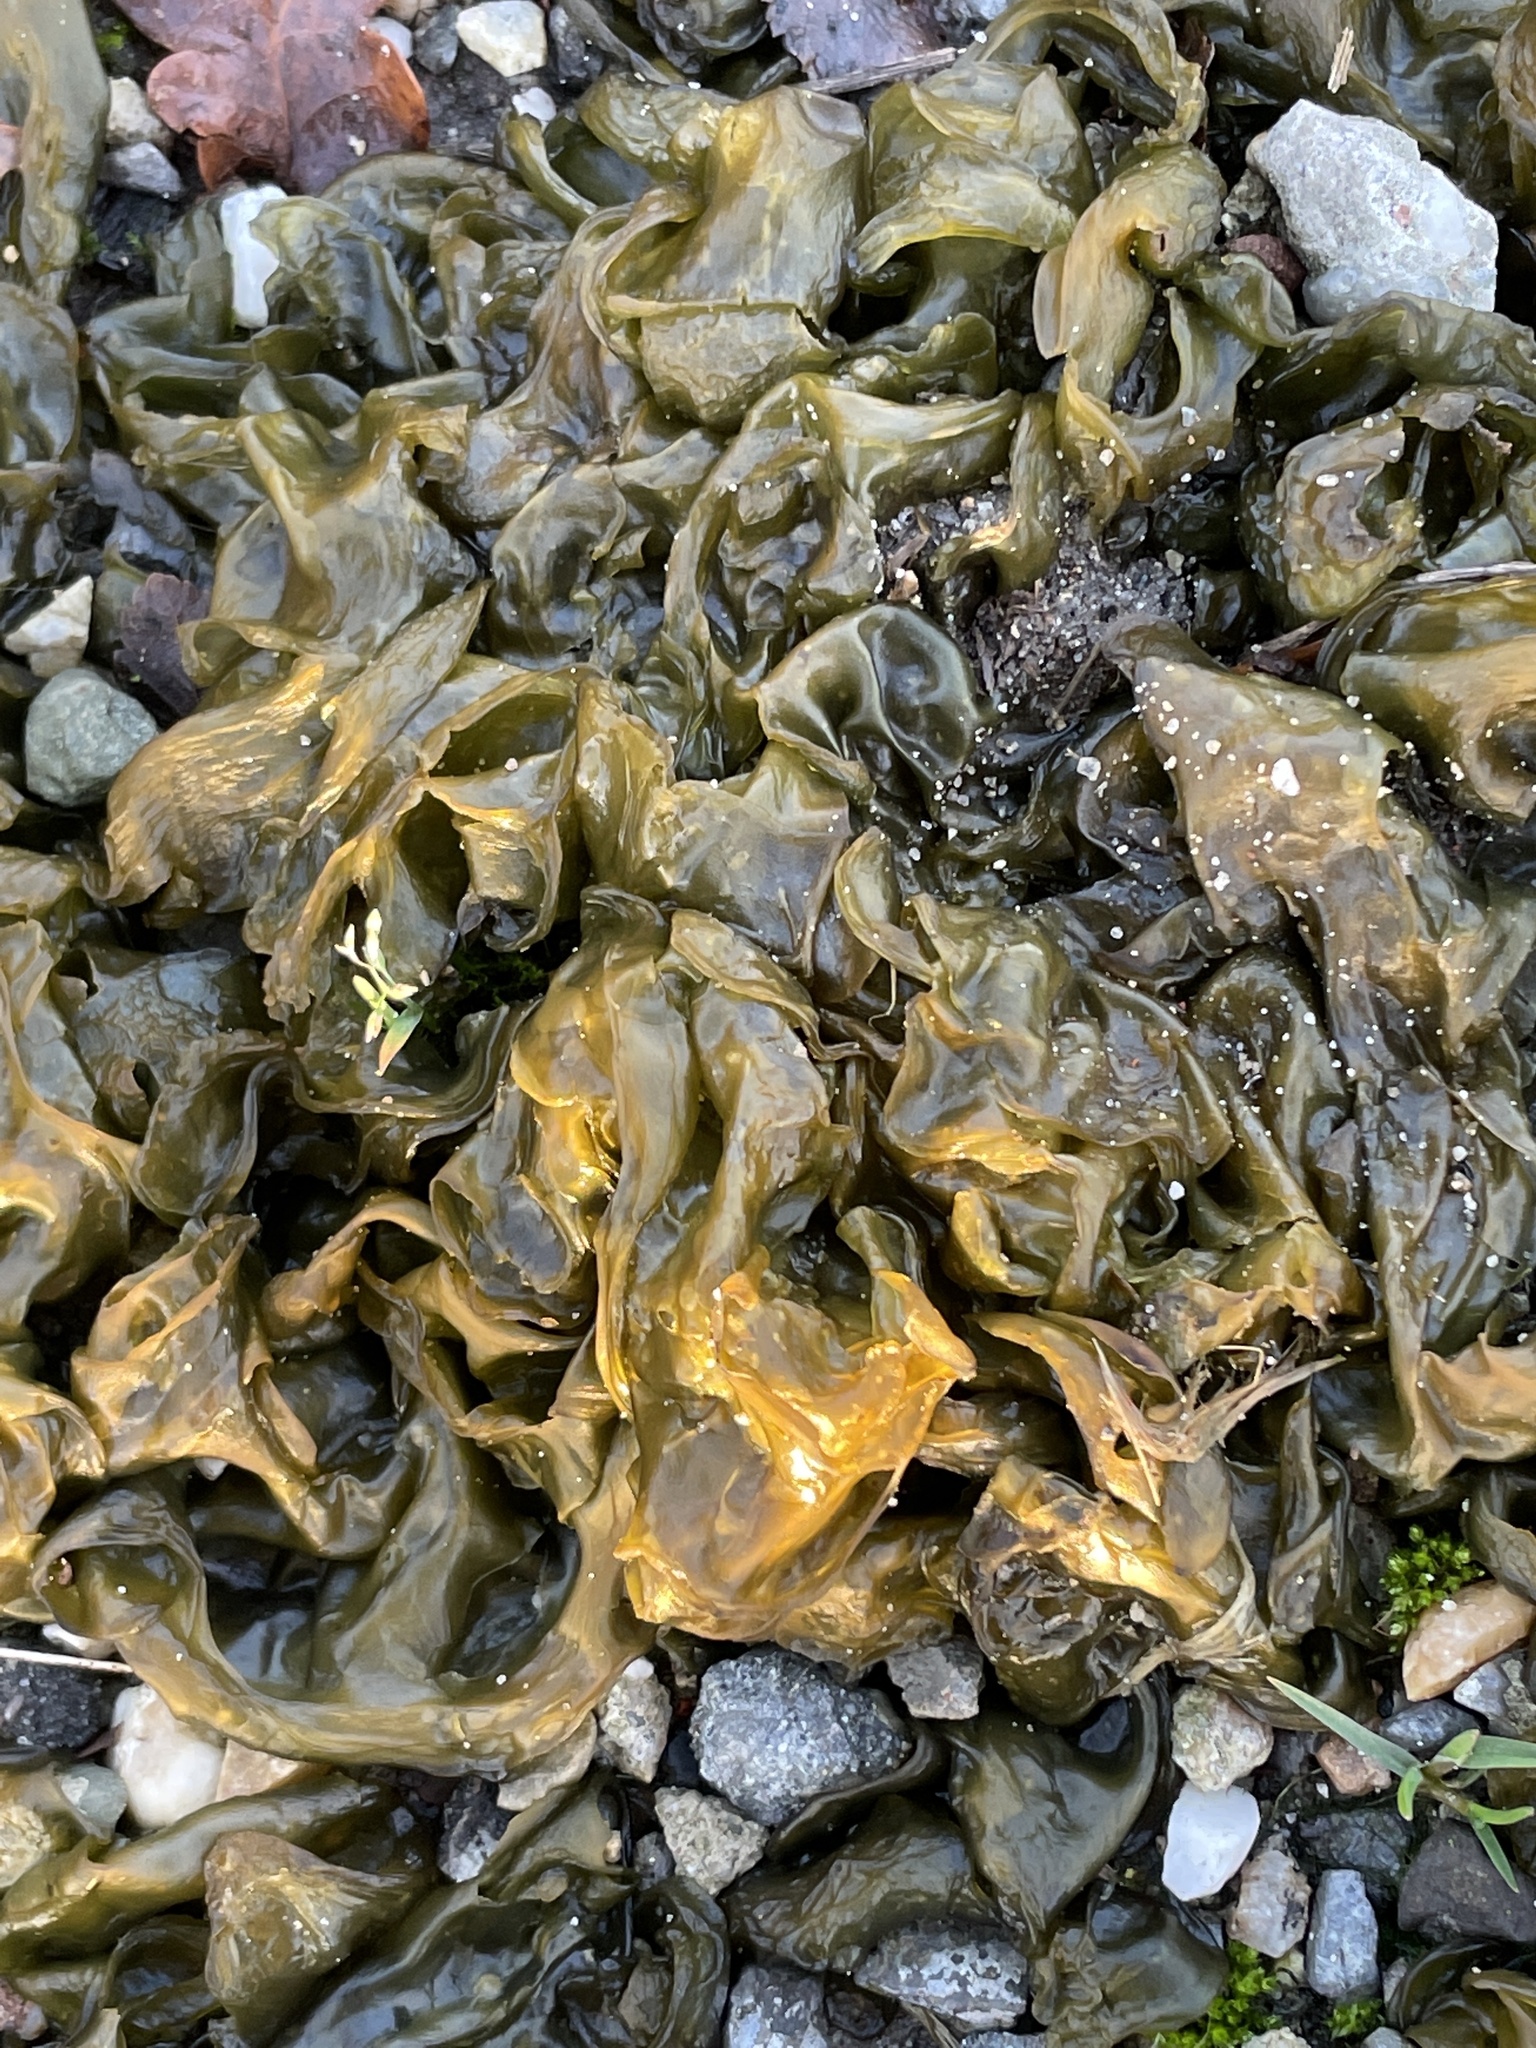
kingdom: Bacteria
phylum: Cyanobacteria
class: Cyanobacteriia
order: Cyanobacteriales
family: Nostocaceae
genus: Nostoc
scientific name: Nostoc commune
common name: Star jelly
